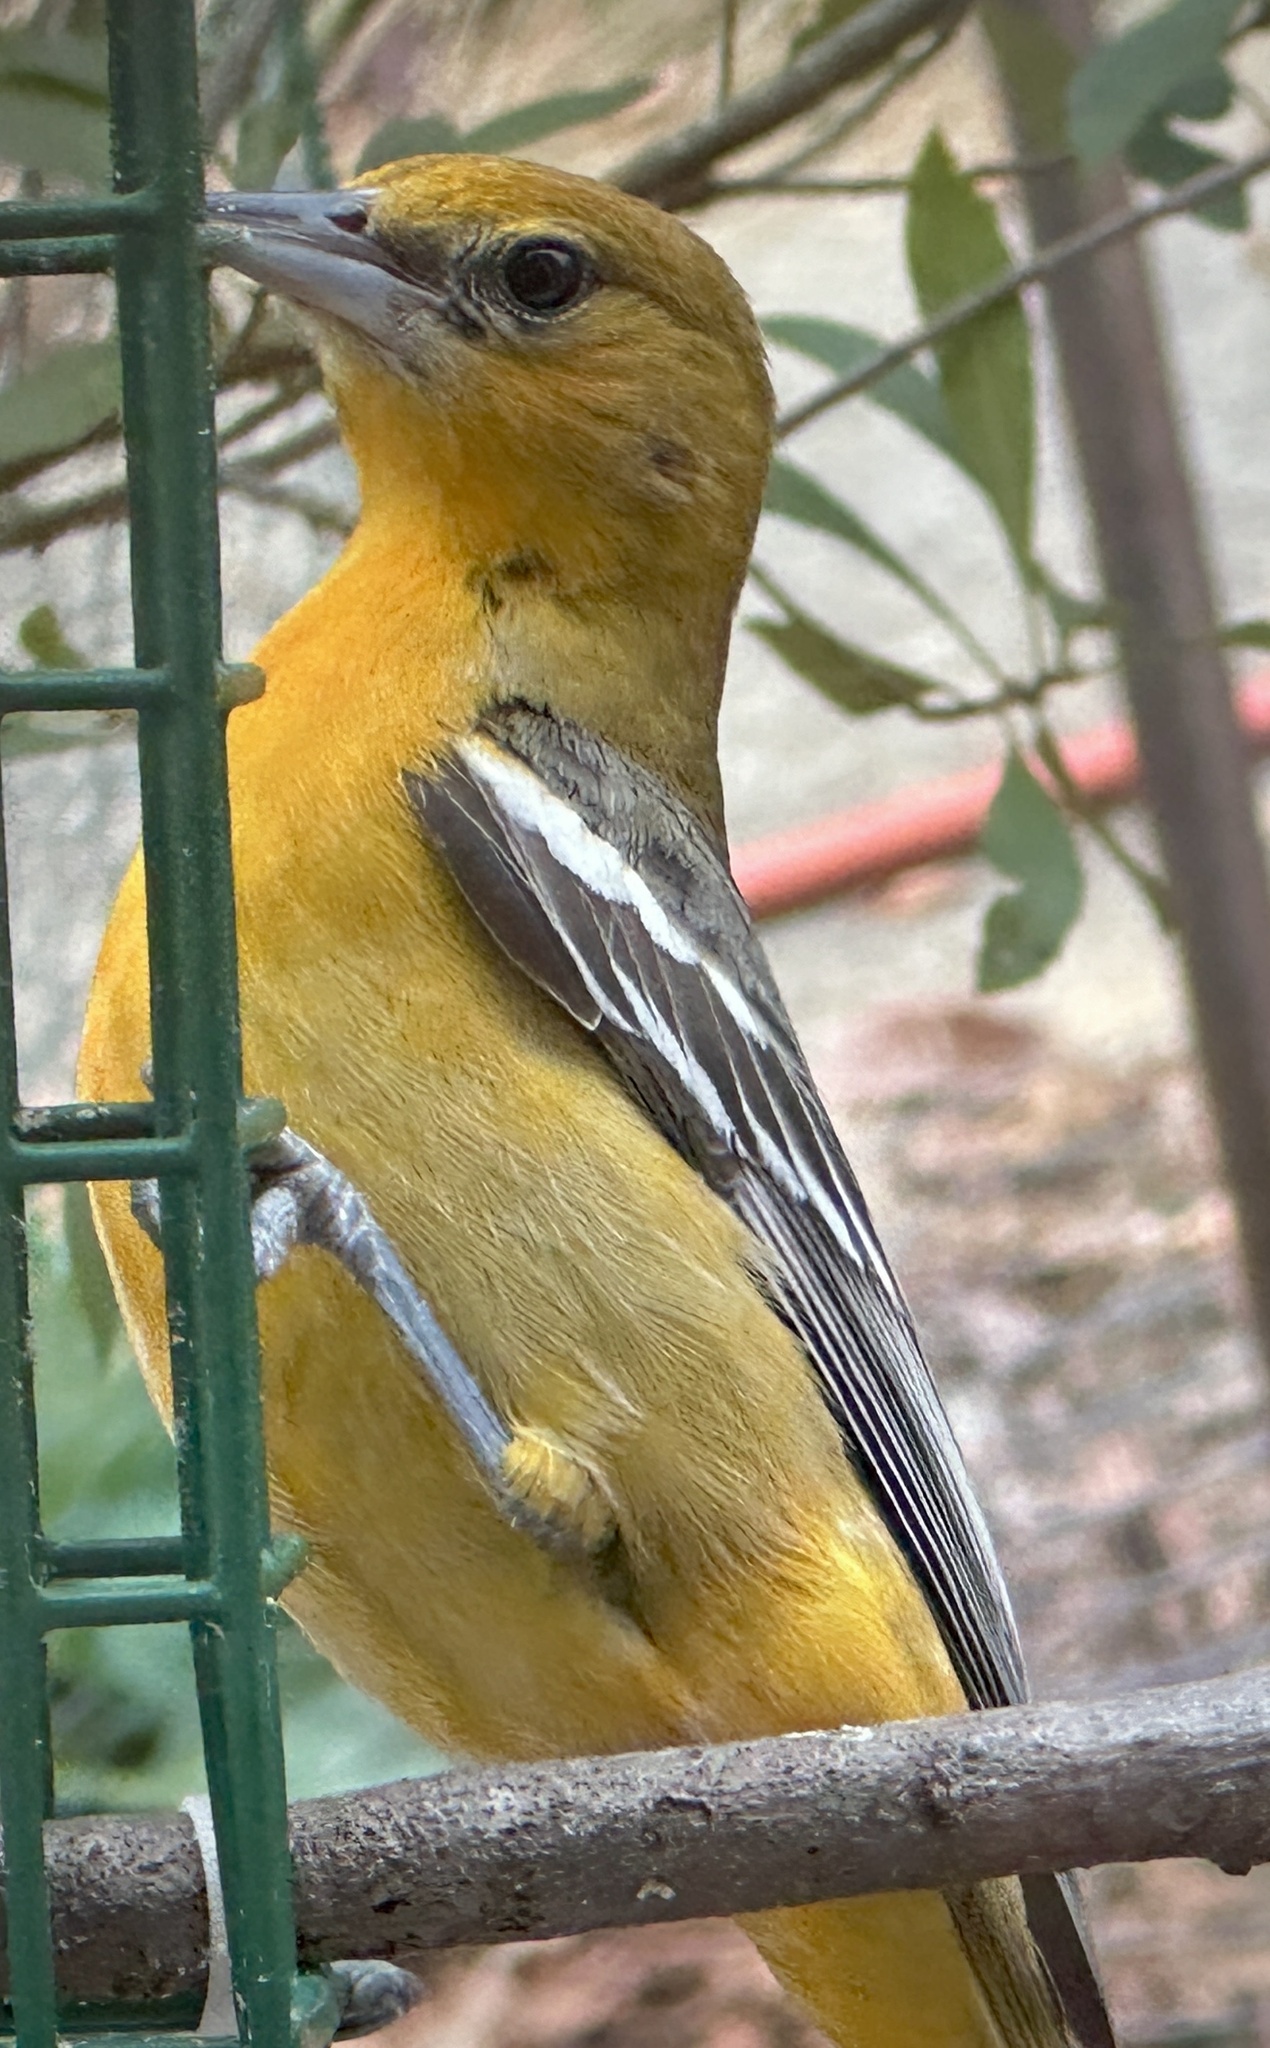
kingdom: Animalia
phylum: Chordata
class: Aves
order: Passeriformes
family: Icteridae
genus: Icterus
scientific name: Icterus galbula
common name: Baltimore oriole
